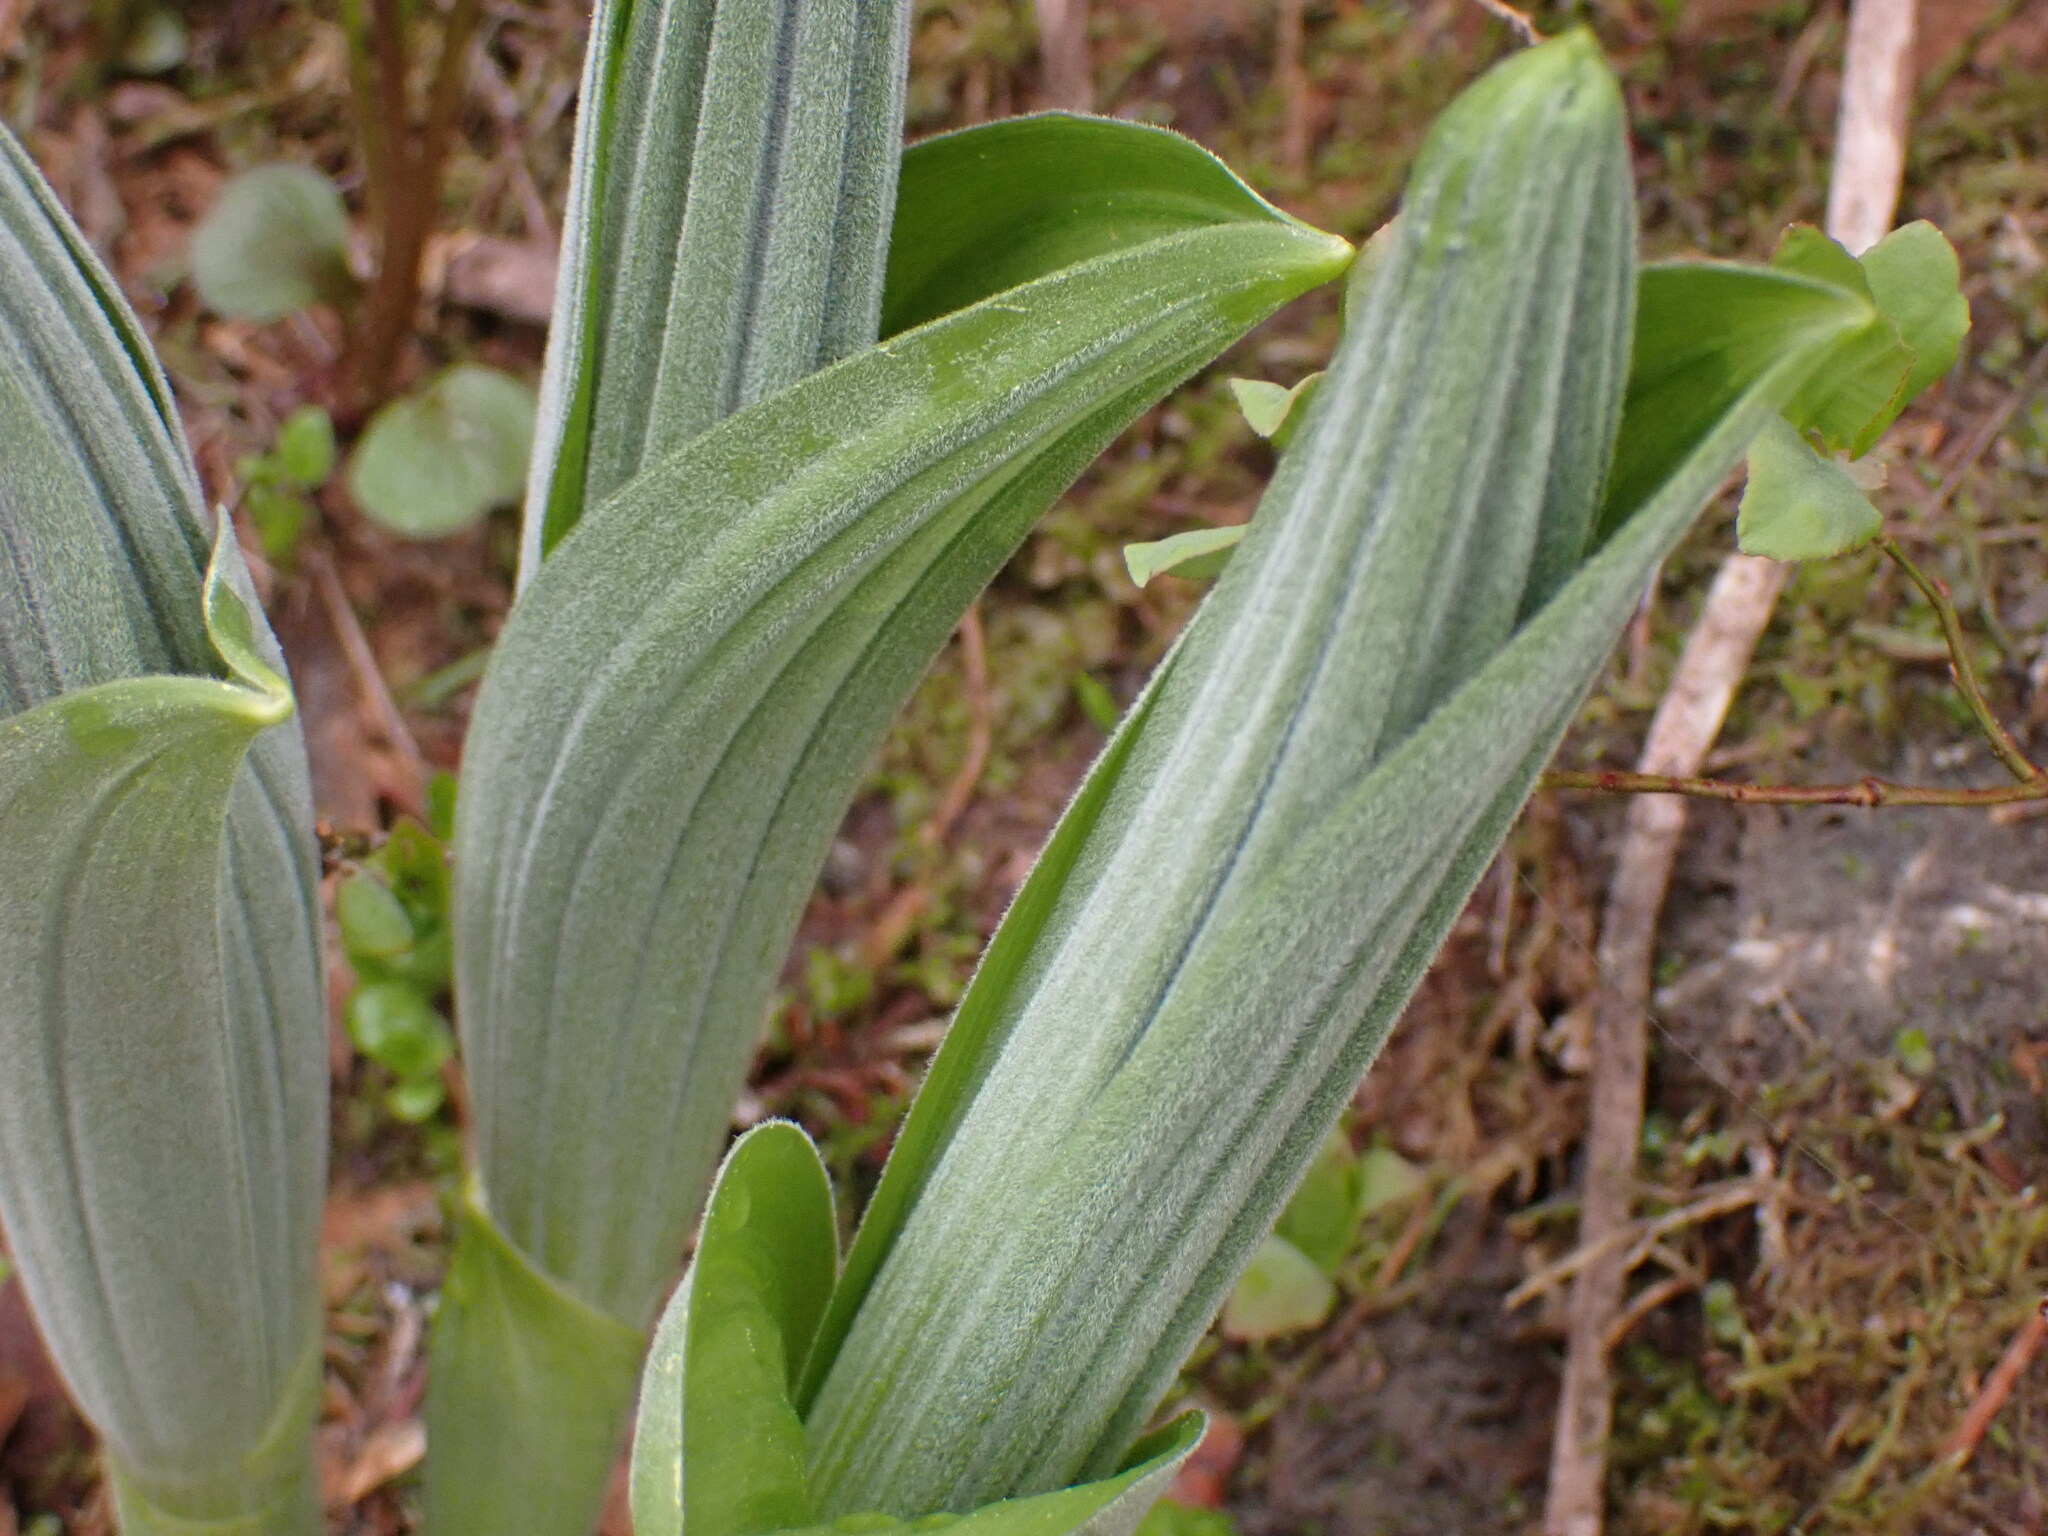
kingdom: Plantae
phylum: Tracheophyta
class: Liliopsida
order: Liliales
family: Melanthiaceae
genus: Veratrum
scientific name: Veratrum viride
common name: American false hellebore
